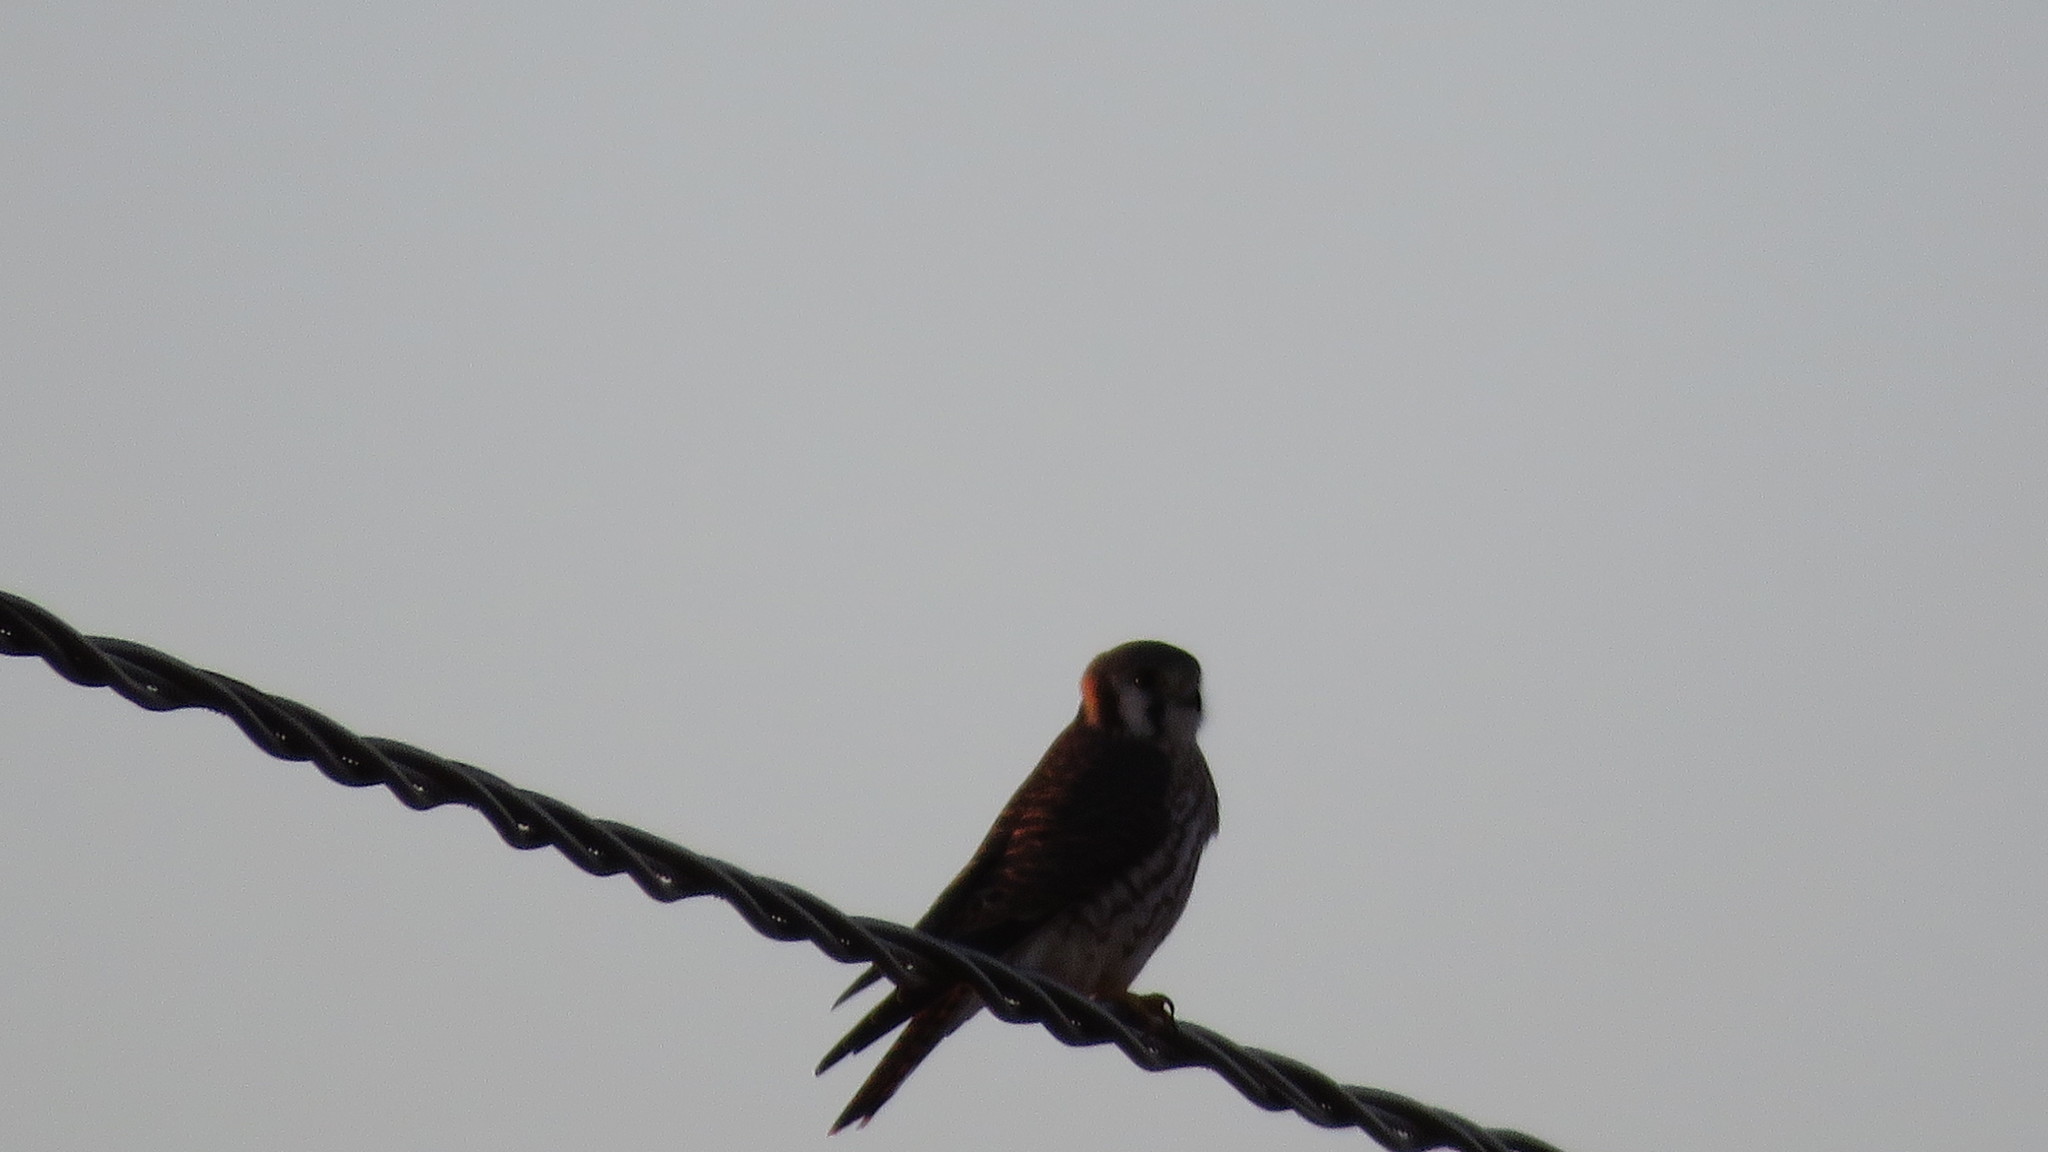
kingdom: Animalia
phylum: Chordata
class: Aves
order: Falconiformes
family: Falconidae
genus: Falco
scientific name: Falco sparverius
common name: American kestrel
